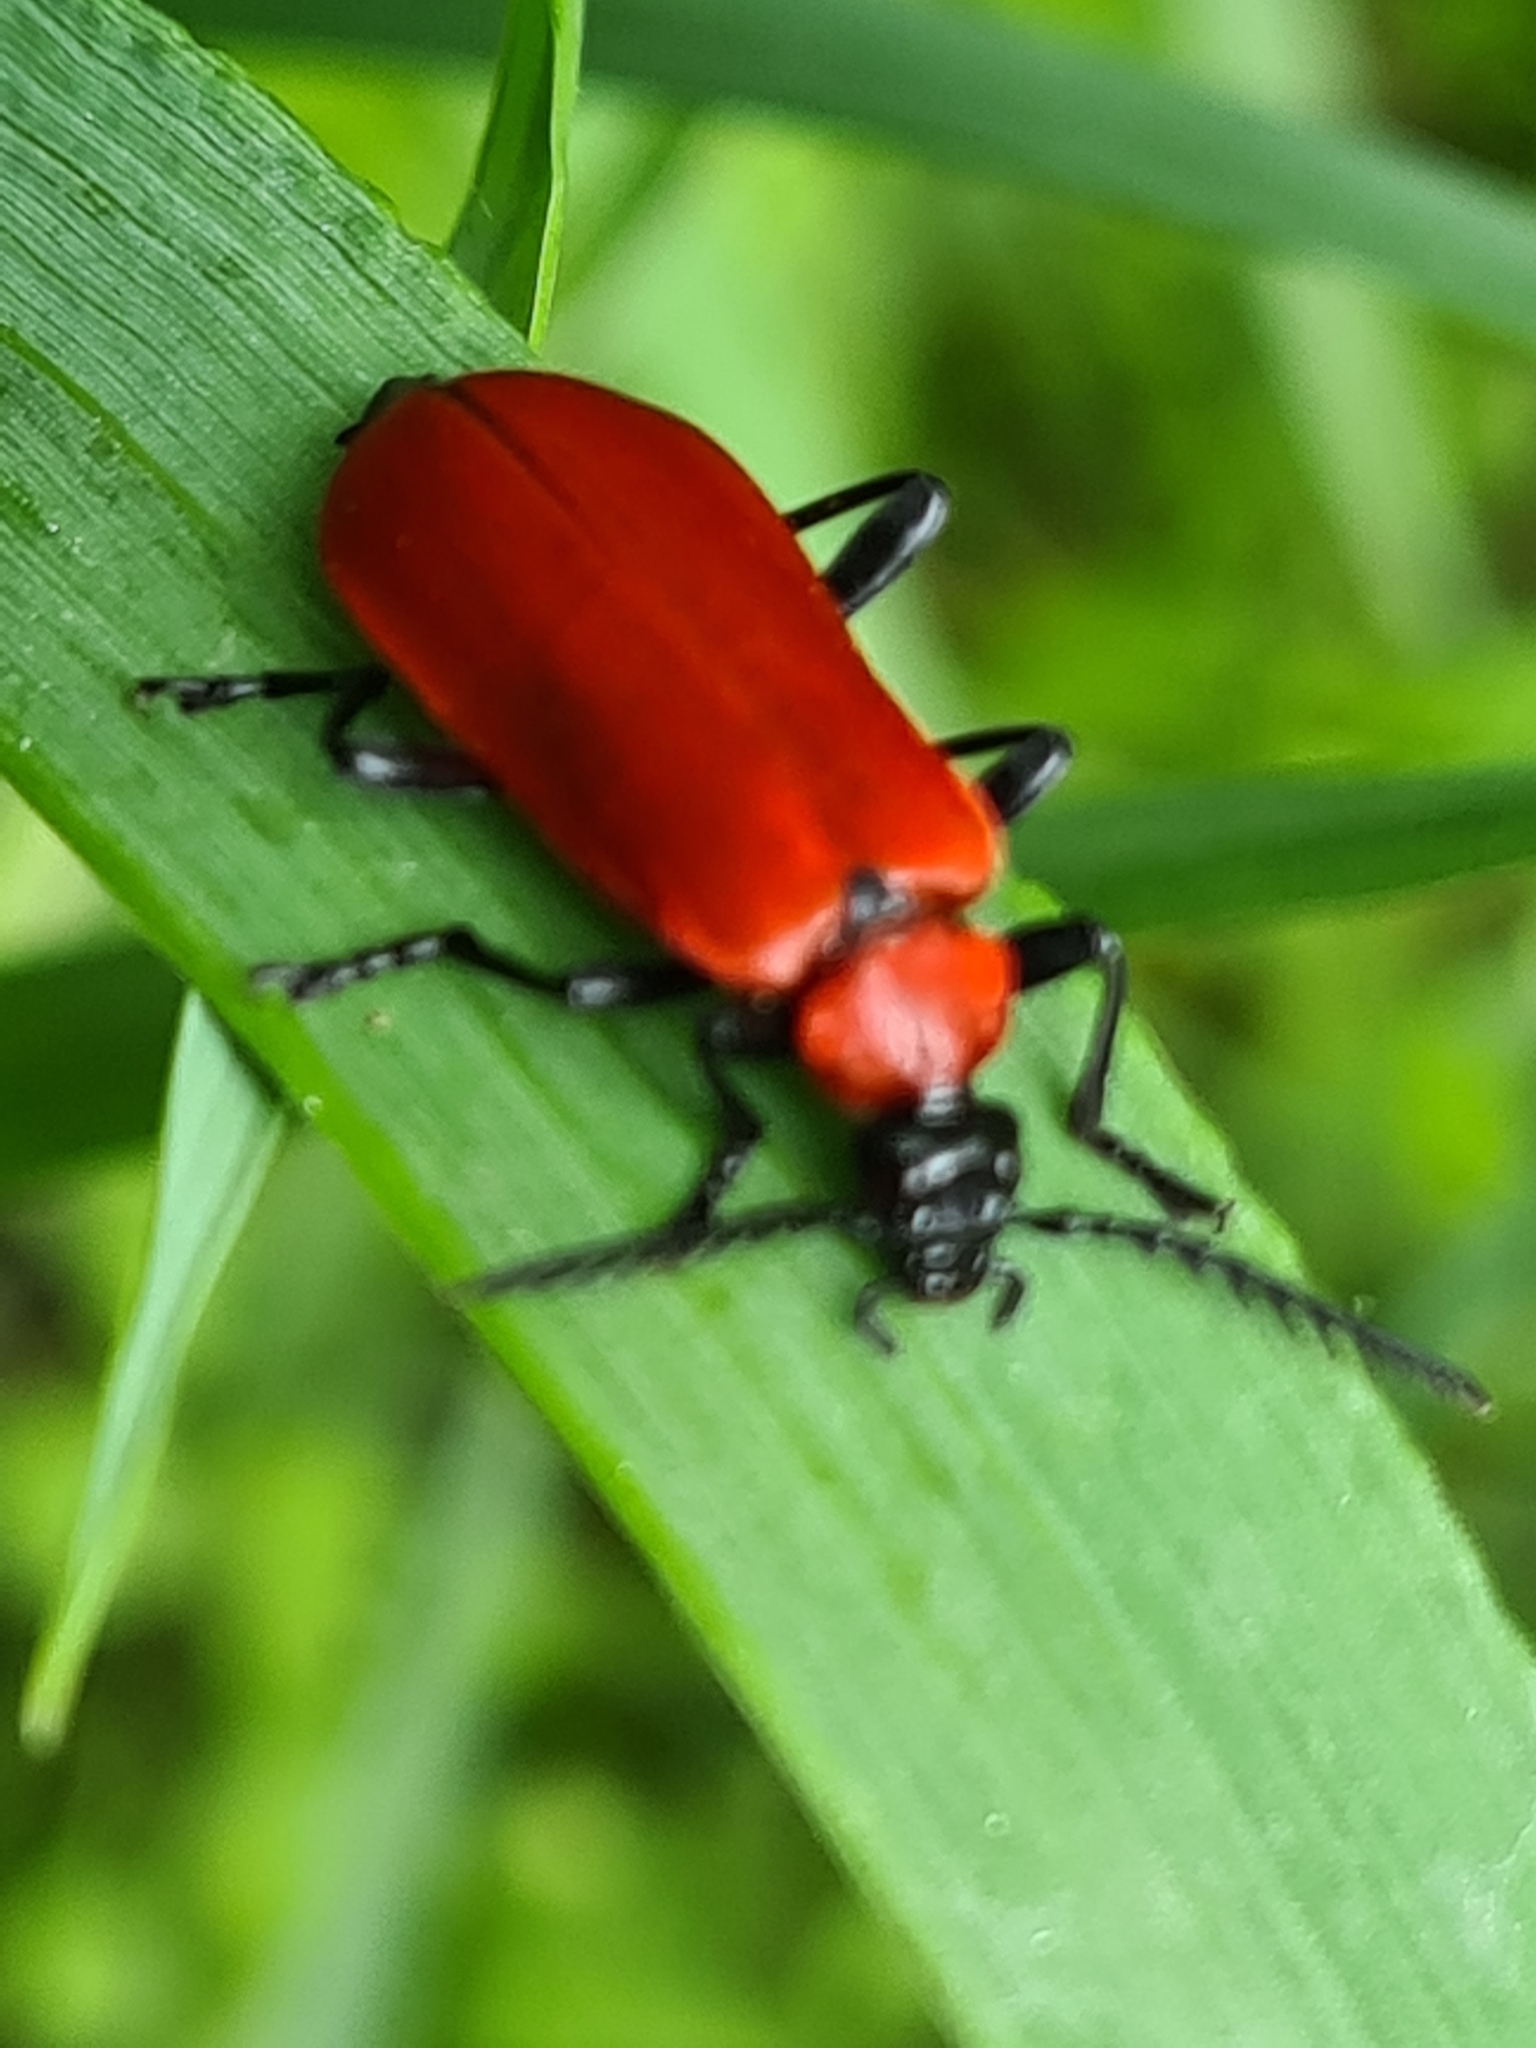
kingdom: Animalia
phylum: Arthropoda
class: Insecta
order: Coleoptera
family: Pyrochroidae
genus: Pyrochroa
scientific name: Pyrochroa coccinea
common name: Black-headed cardinal beetle
